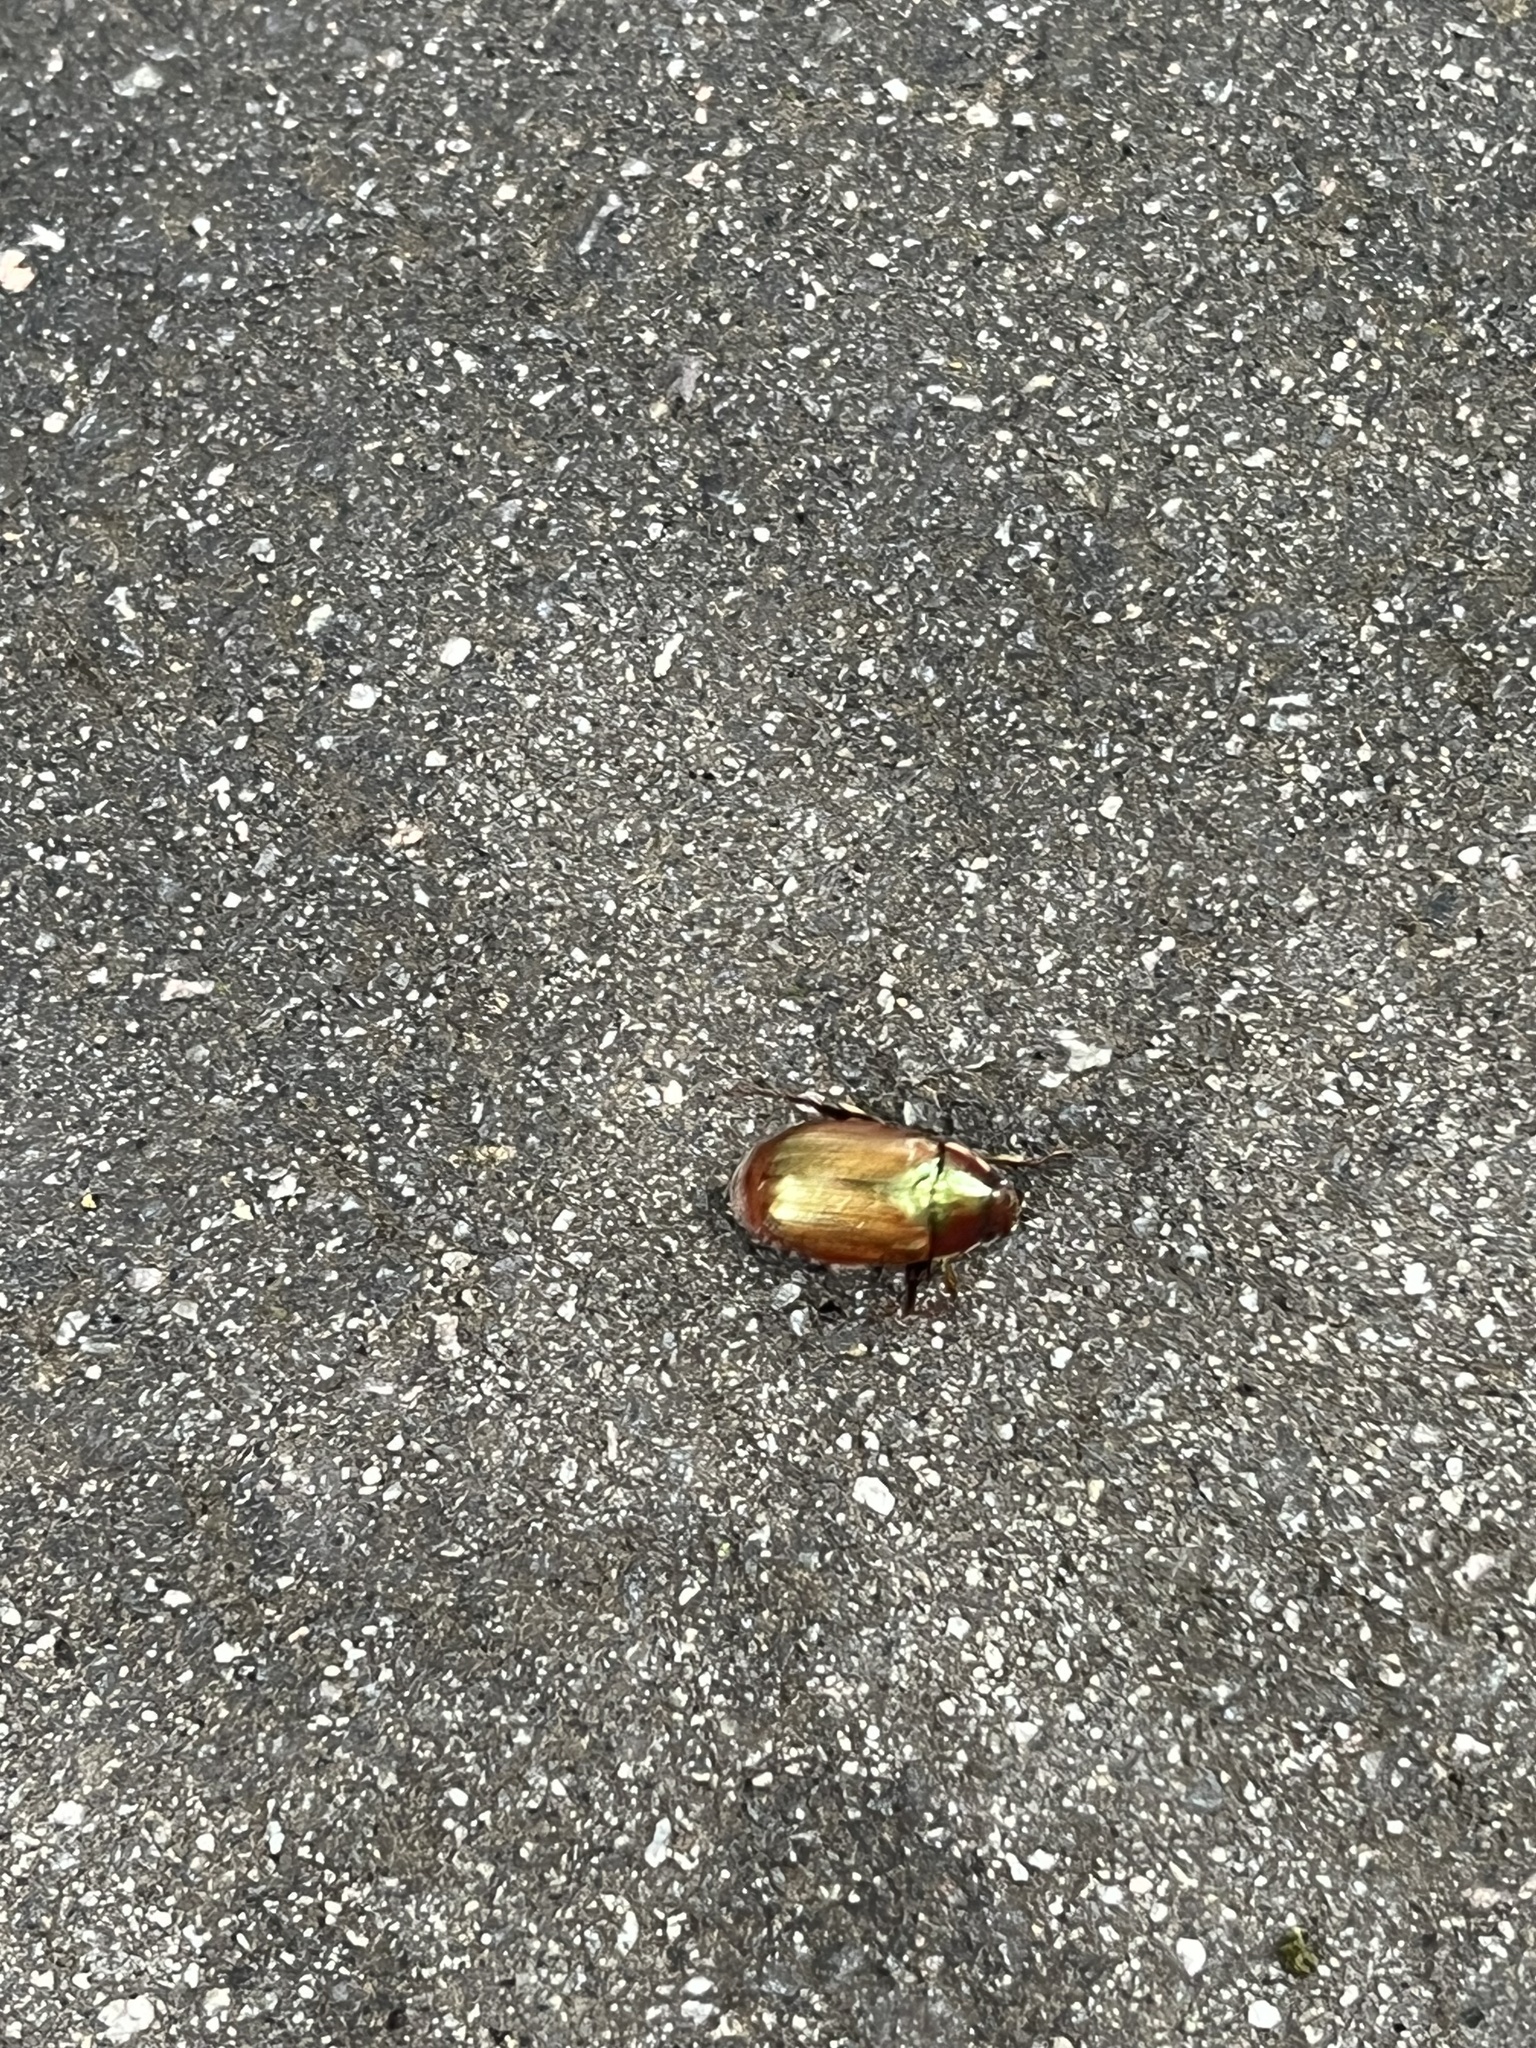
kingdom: Animalia
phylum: Arthropoda
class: Insecta
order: Coleoptera
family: Scarabaeidae
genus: Callistethus
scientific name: Callistethus marginatus
